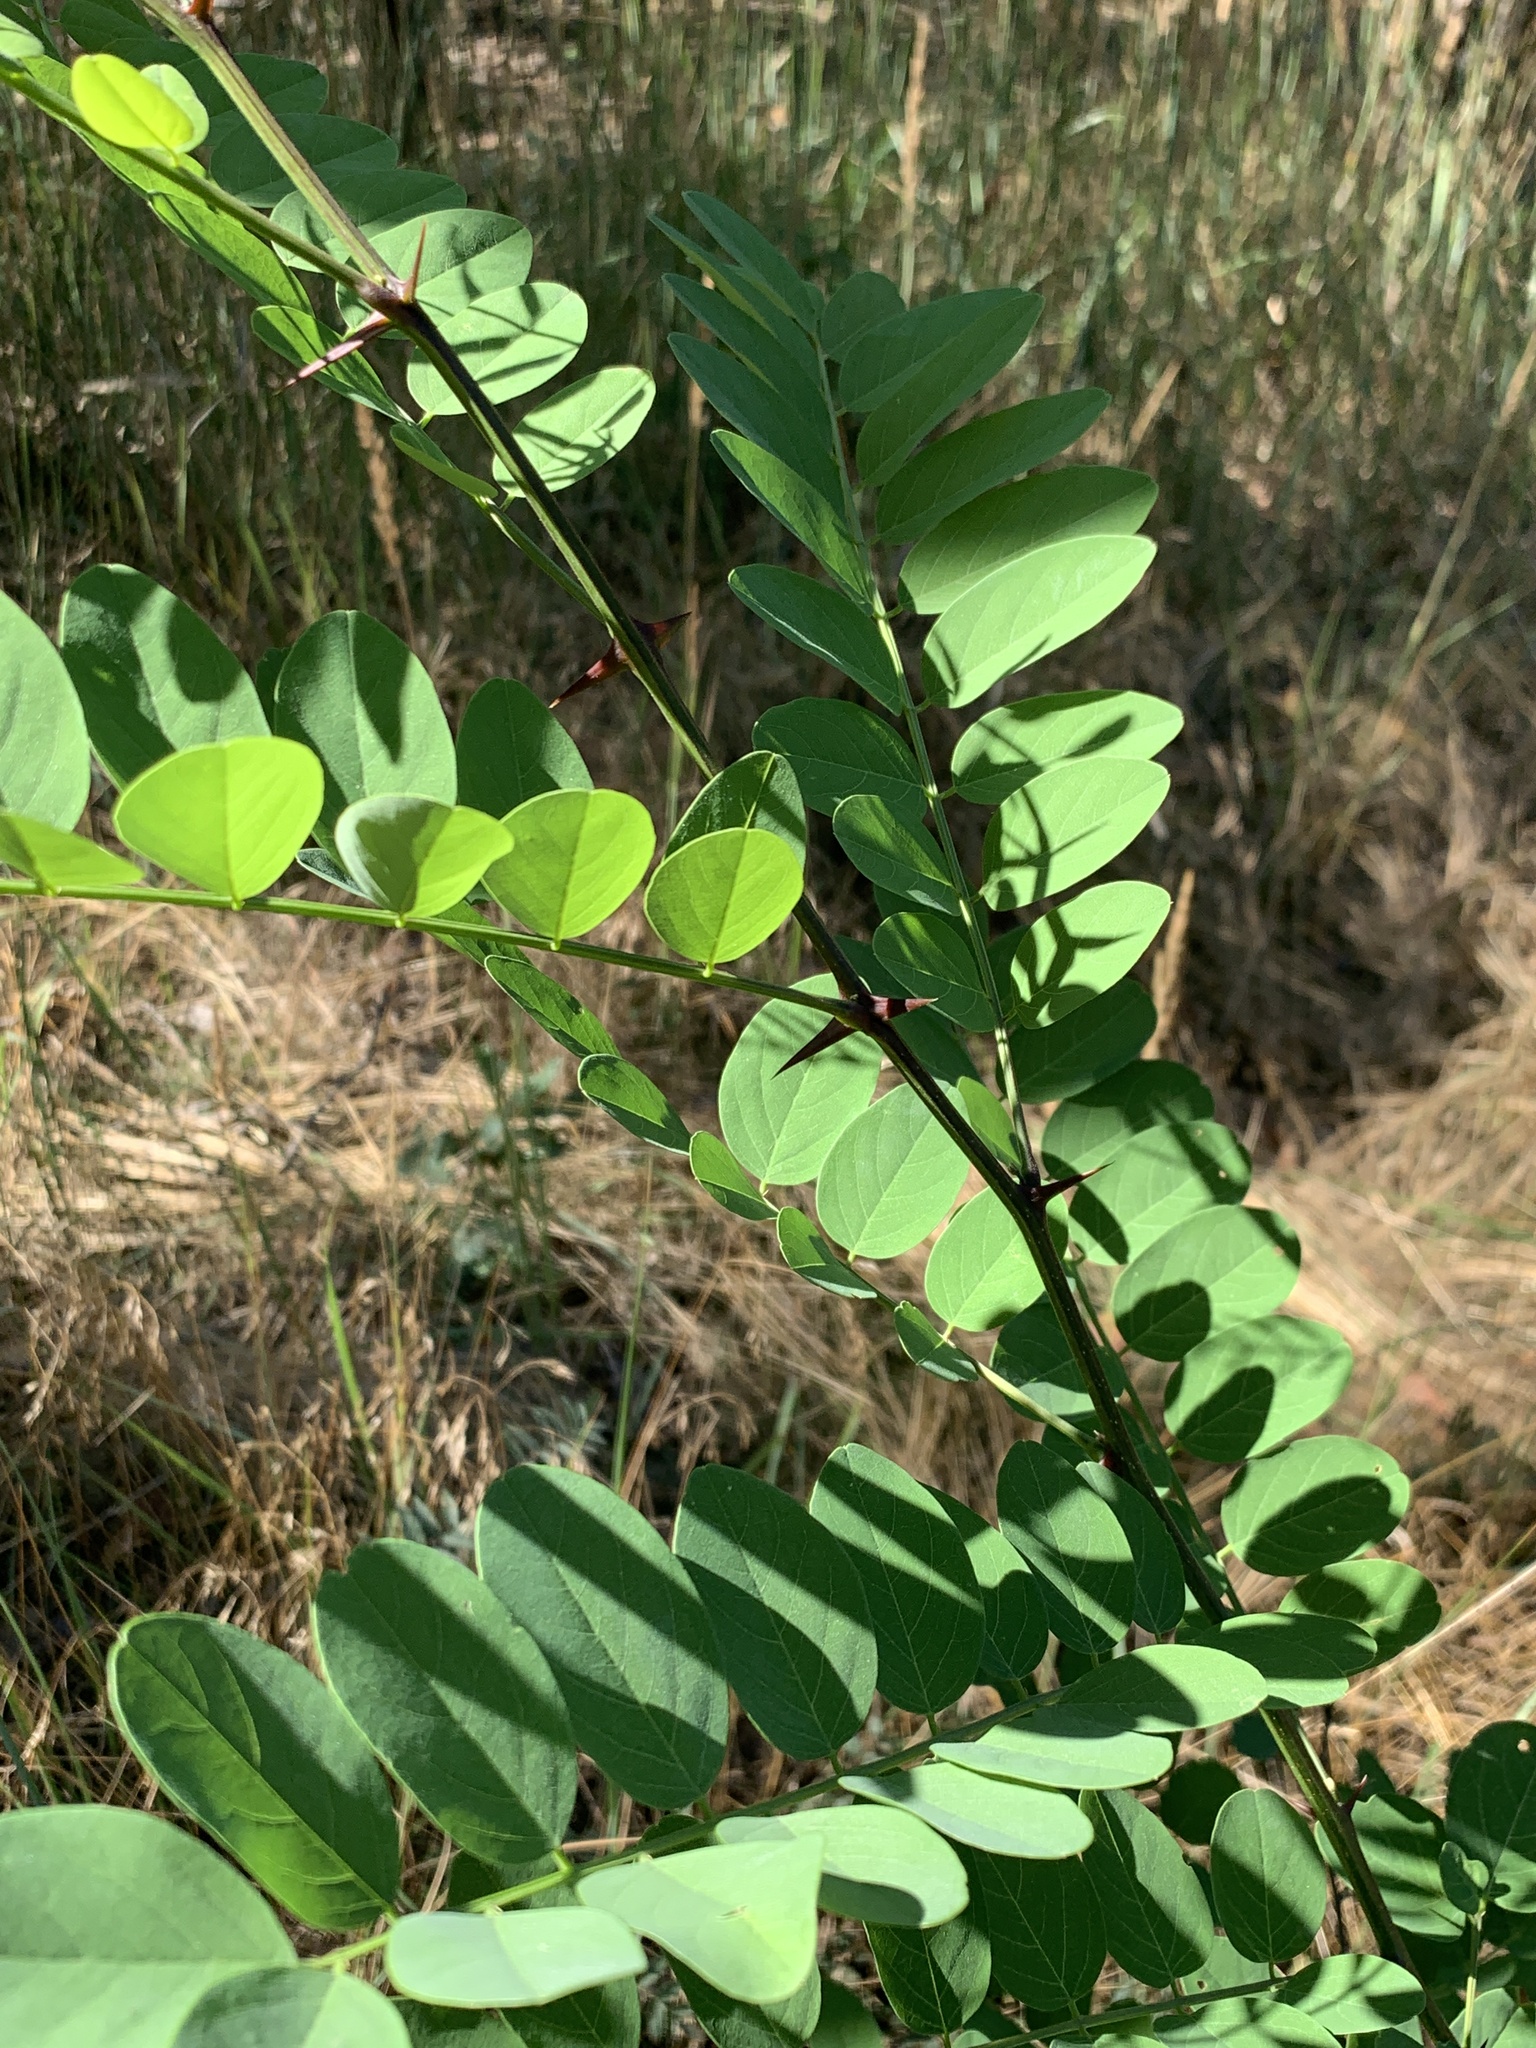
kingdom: Plantae
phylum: Tracheophyta
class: Magnoliopsida
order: Fabales
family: Fabaceae
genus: Robinia
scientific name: Robinia pseudoacacia
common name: Black locust
